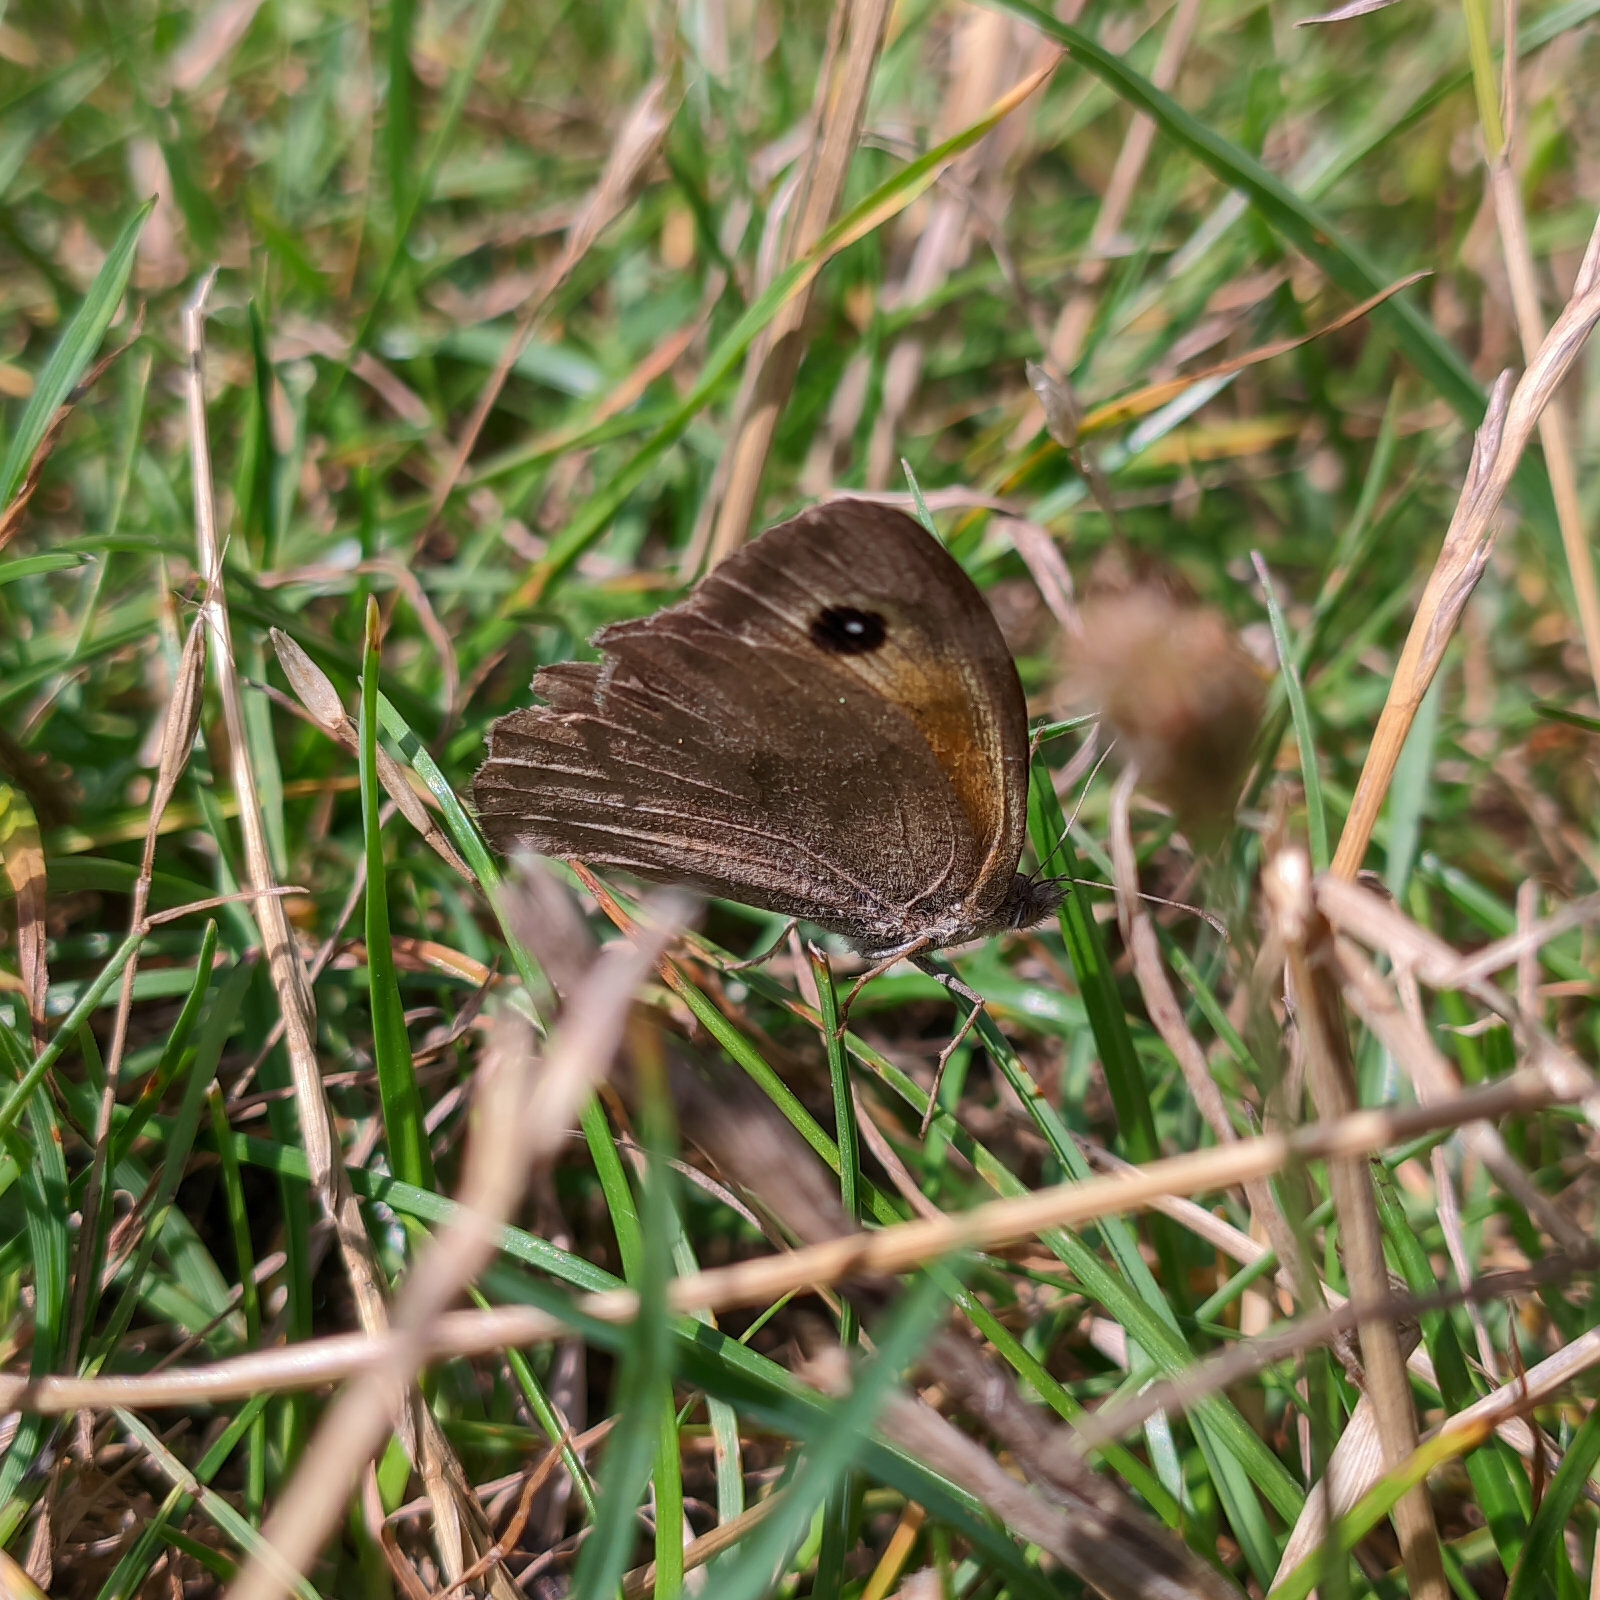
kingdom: Animalia
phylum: Arthropoda
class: Insecta
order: Lepidoptera
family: Nymphalidae
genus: Maniola
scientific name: Maniola jurtina
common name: Meadow brown
